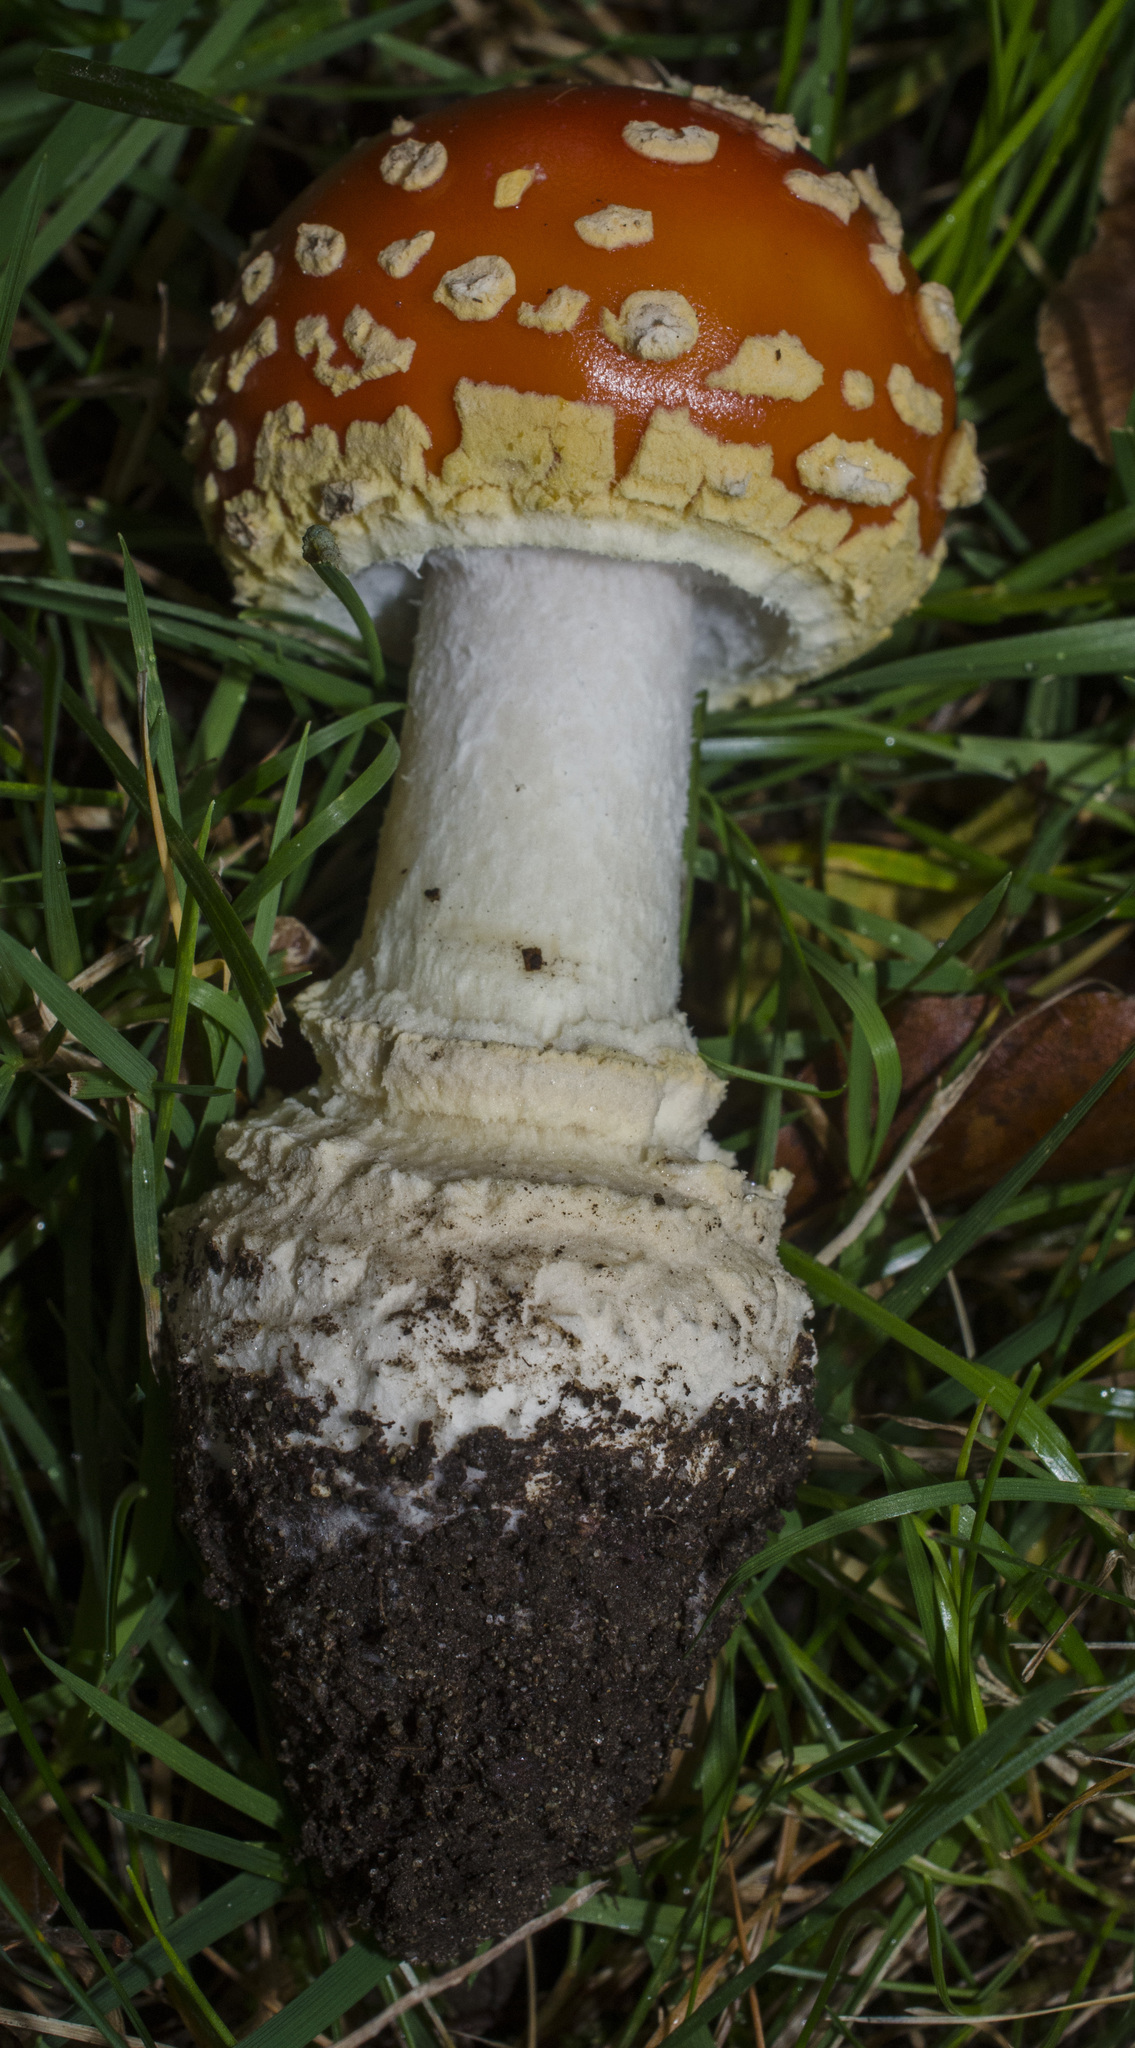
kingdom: Fungi
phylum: Basidiomycota
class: Agaricomycetes
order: Agaricales
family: Amanitaceae
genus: Amanita
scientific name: Amanita muscaria
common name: Fly agaric
